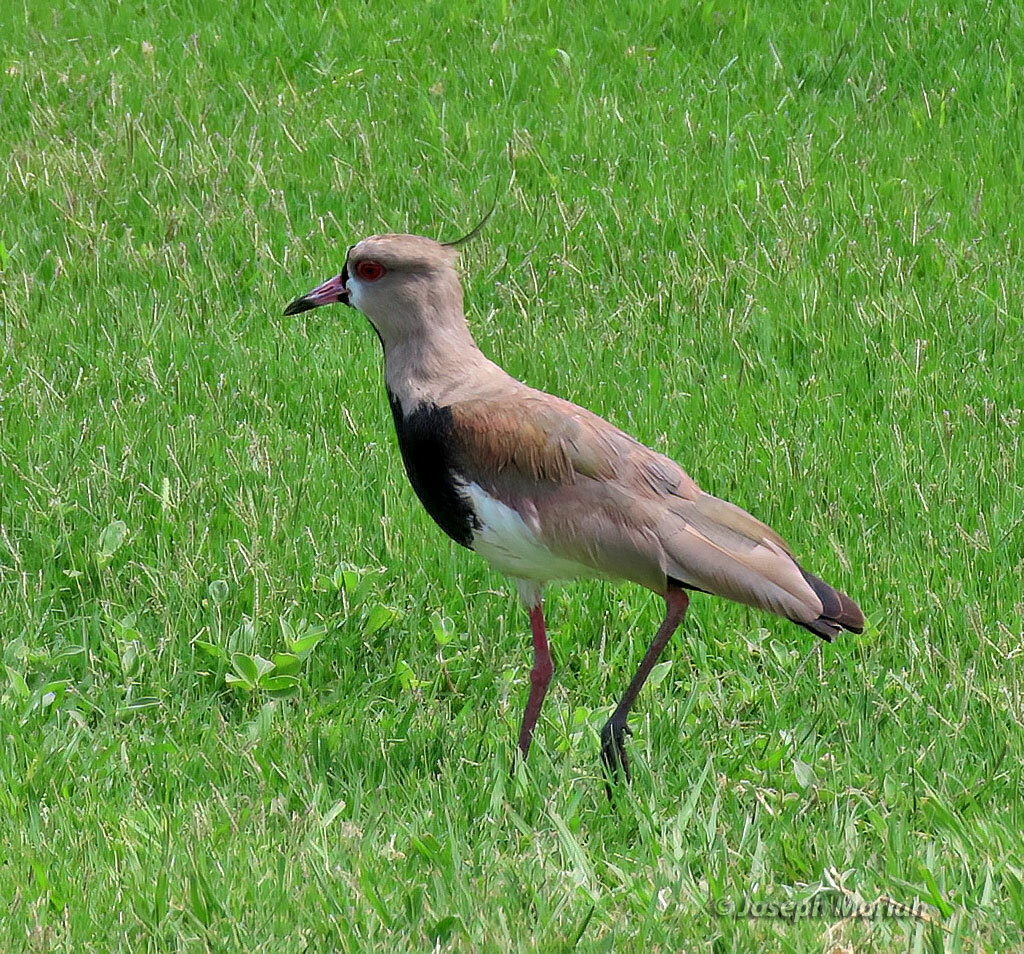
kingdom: Animalia
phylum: Chordata
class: Aves
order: Charadriiformes
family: Charadriidae
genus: Vanellus
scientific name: Vanellus chilensis
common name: Southern lapwing
